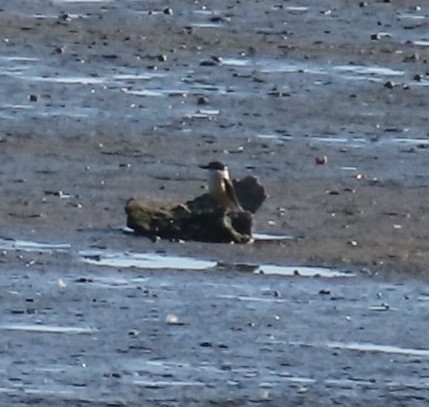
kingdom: Animalia
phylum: Chordata
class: Aves
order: Coraciiformes
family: Alcedinidae
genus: Todiramphus
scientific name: Todiramphus sanctus
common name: Sacred kingfisher
